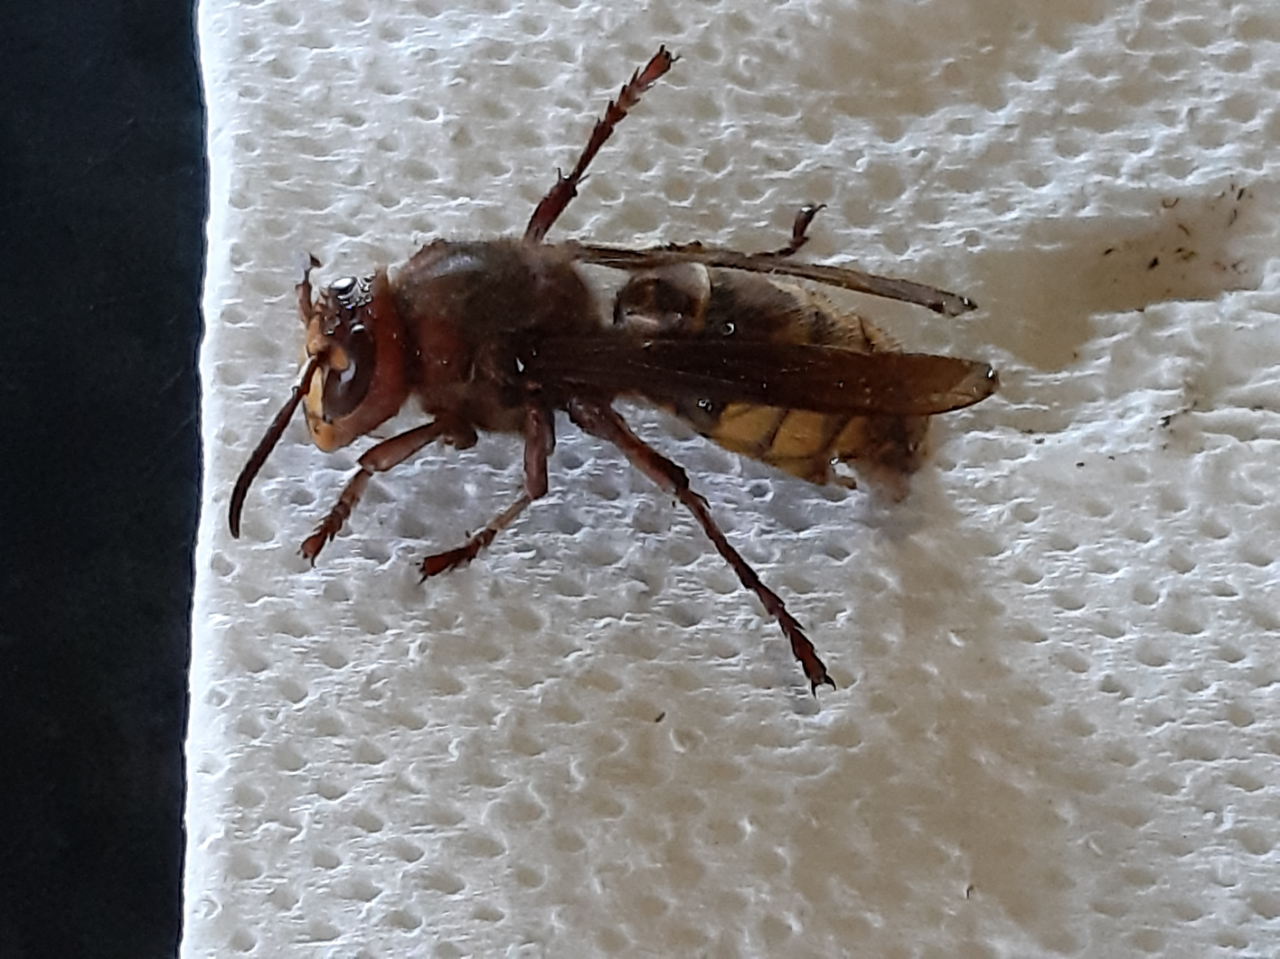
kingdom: Animalia
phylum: Arthropoda
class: Insecta
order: Hymenoptera
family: Vespidae
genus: Vespa
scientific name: Vespa crabro
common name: Hornet
